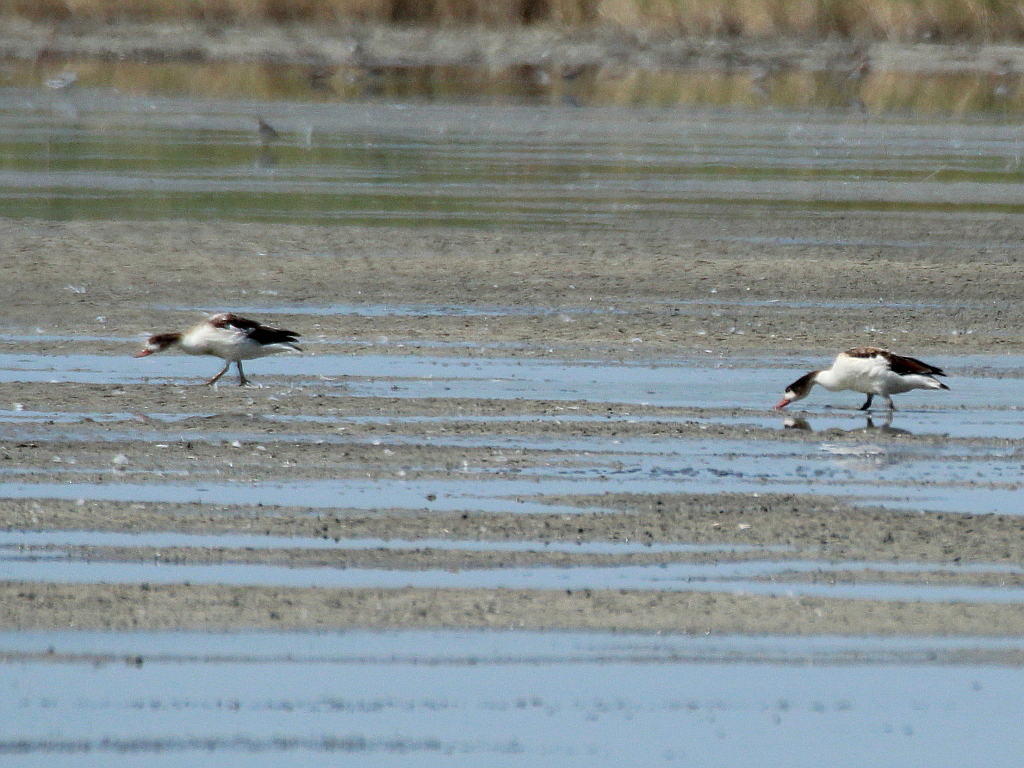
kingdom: Animalia
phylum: Chordata
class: Aves
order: Anseriformes
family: Anatidae
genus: Tadorna
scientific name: Tadorna tadorna
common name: Common shelduck
